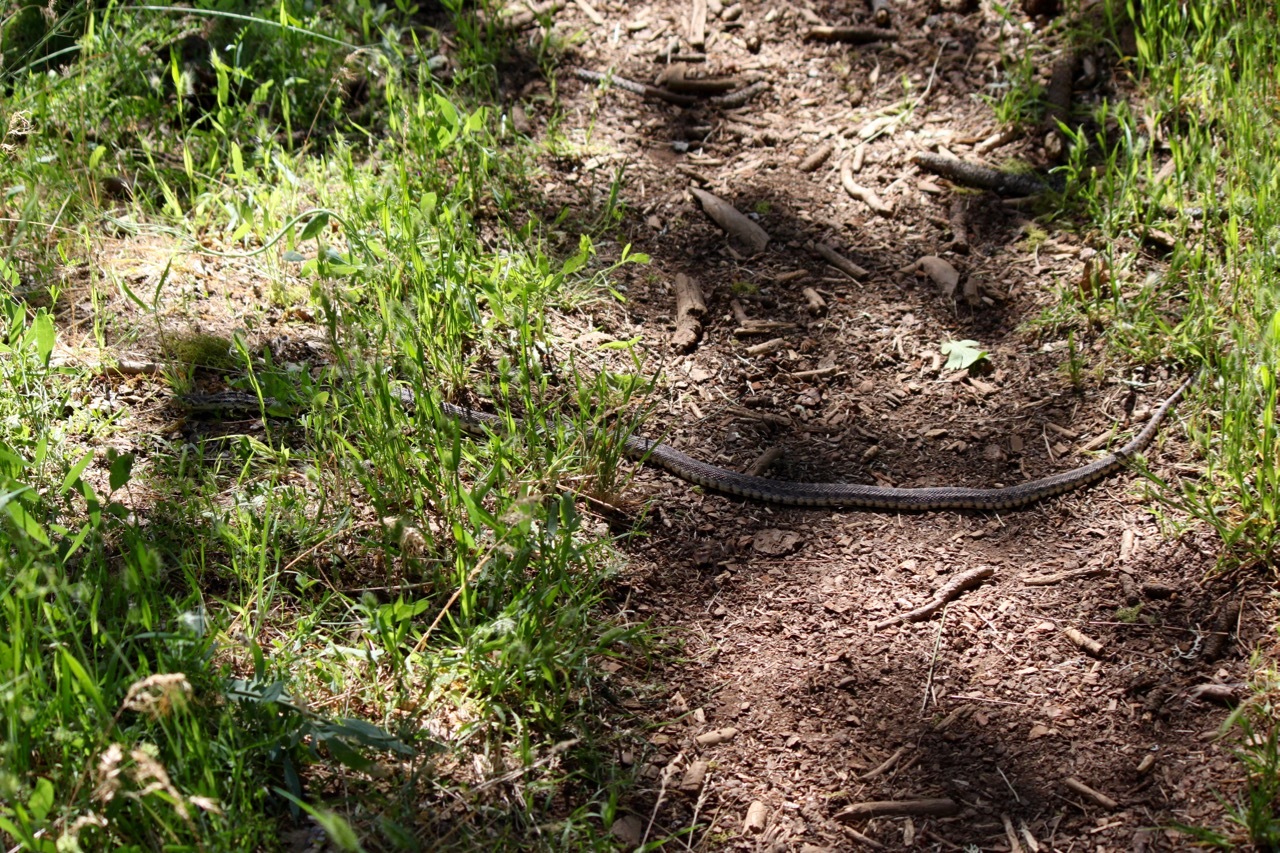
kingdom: Animalia
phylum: Chordata
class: Squamata
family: Colubridae
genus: Pituophis
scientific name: Pituophis catenifer
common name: Gopher snake
